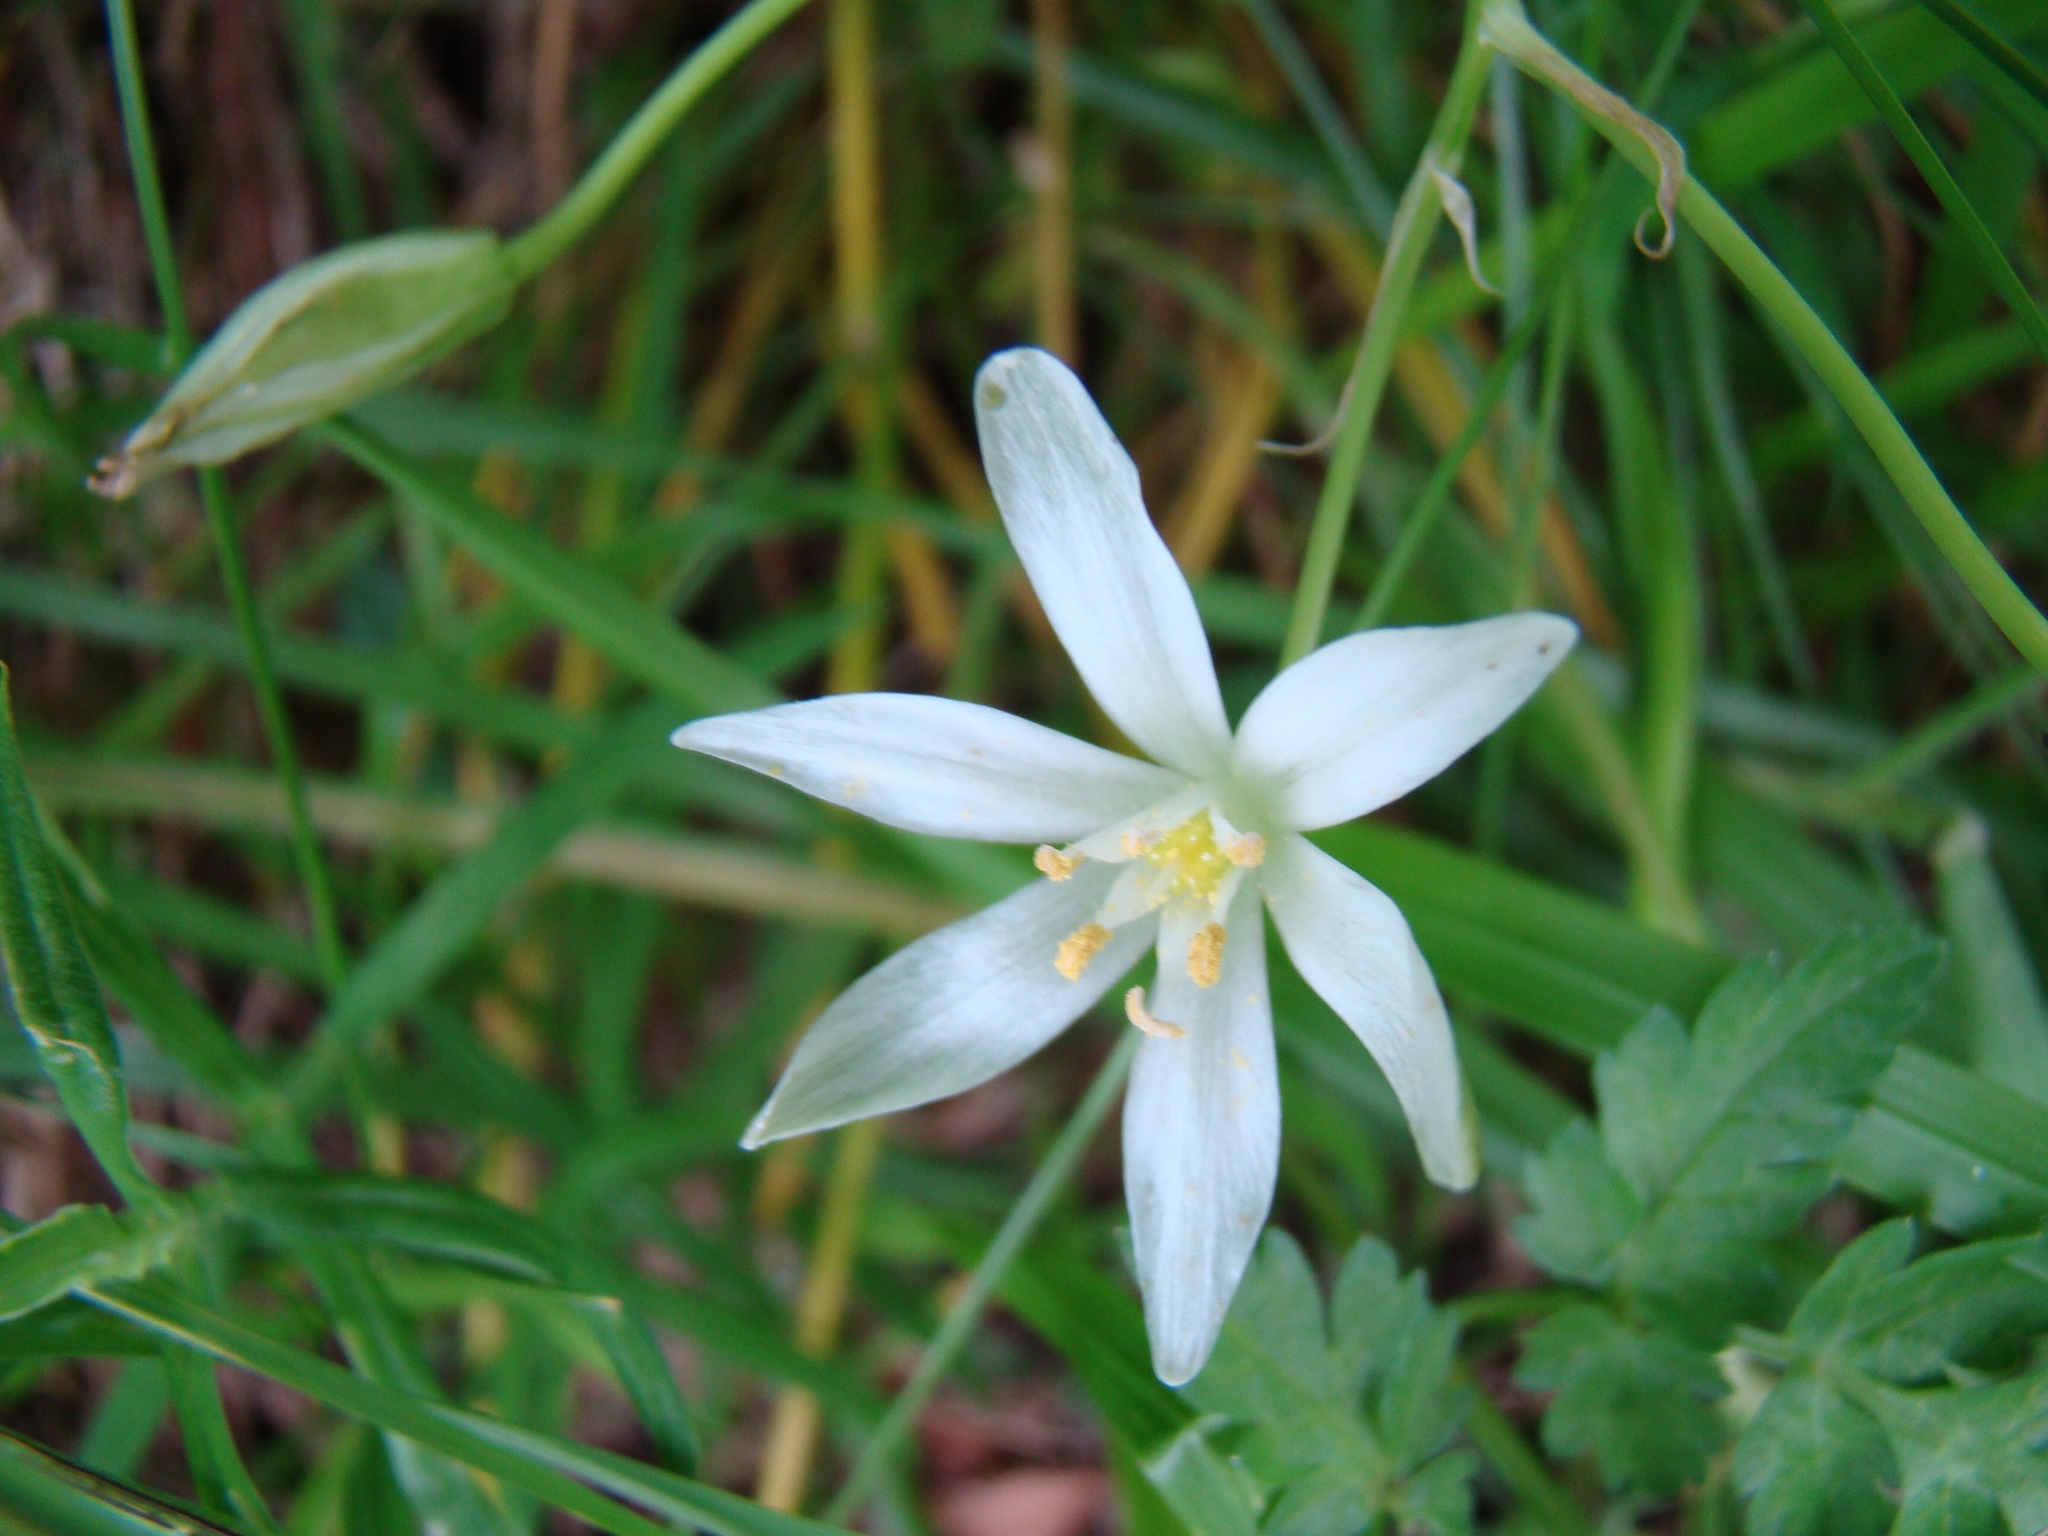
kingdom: Plantae
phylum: Tracheophyta
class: Liliopsida
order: Asparagales
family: Asparagaceae
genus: Ornithogalum
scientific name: Ornithogalum umbellatum
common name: Garden star-of-bethlehem
